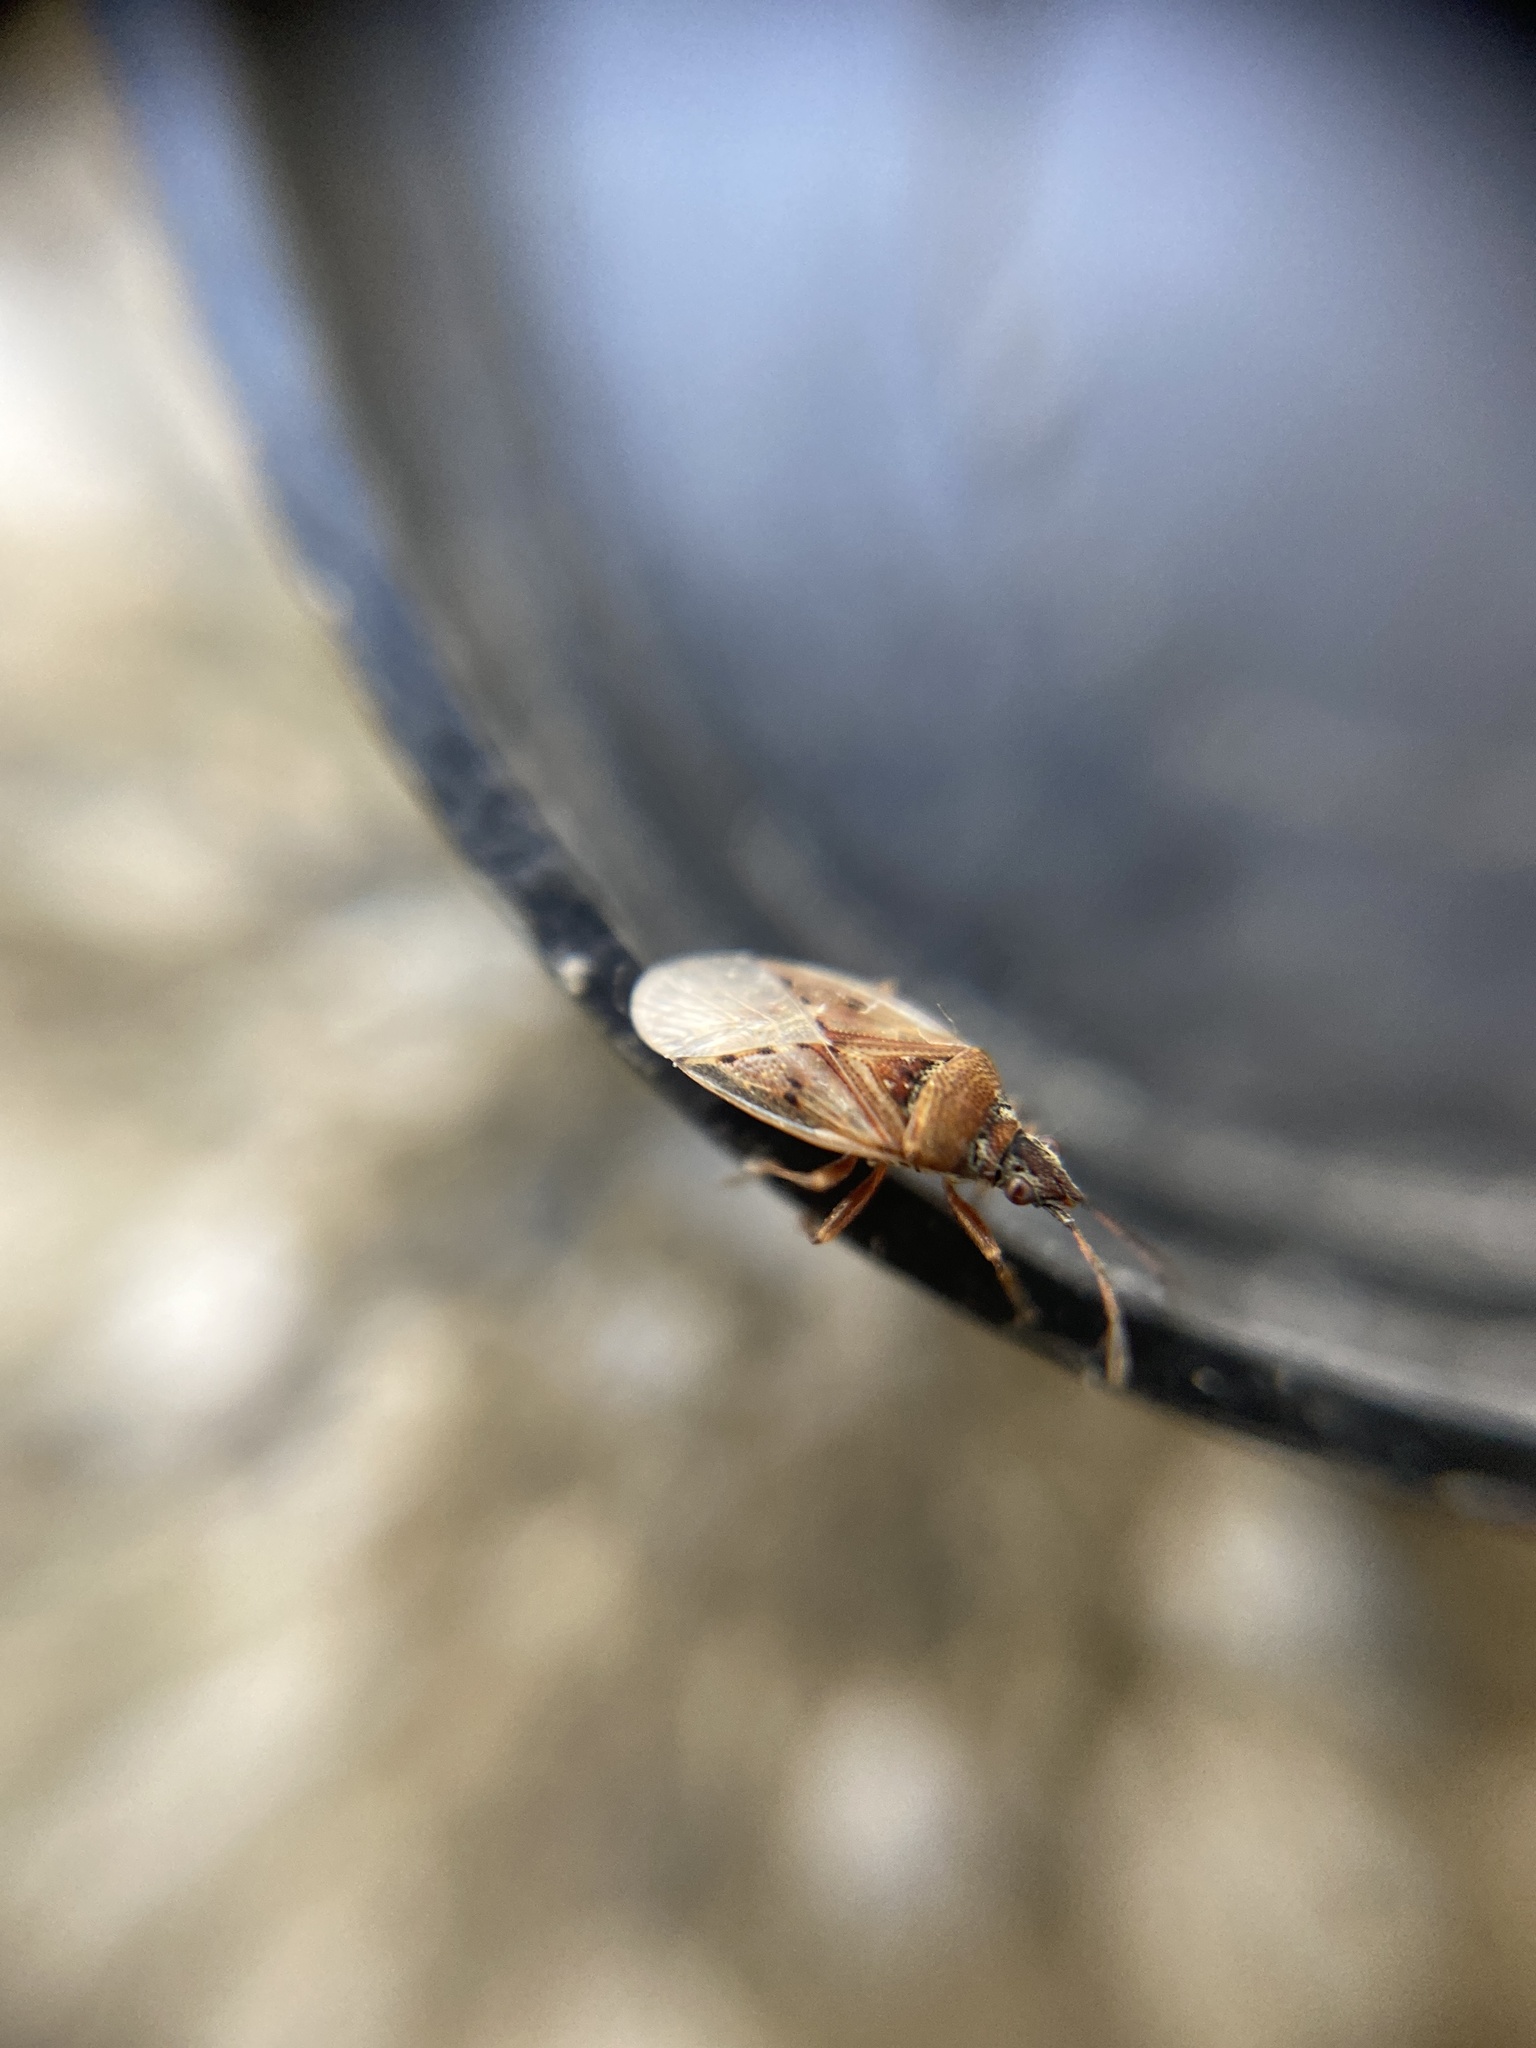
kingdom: Animalia
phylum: Arthropoda
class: Insecta
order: Hemiptera
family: Lygaeidae
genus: Kleidocerys
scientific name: Kleidocerys resedae
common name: Birch catkin bug
